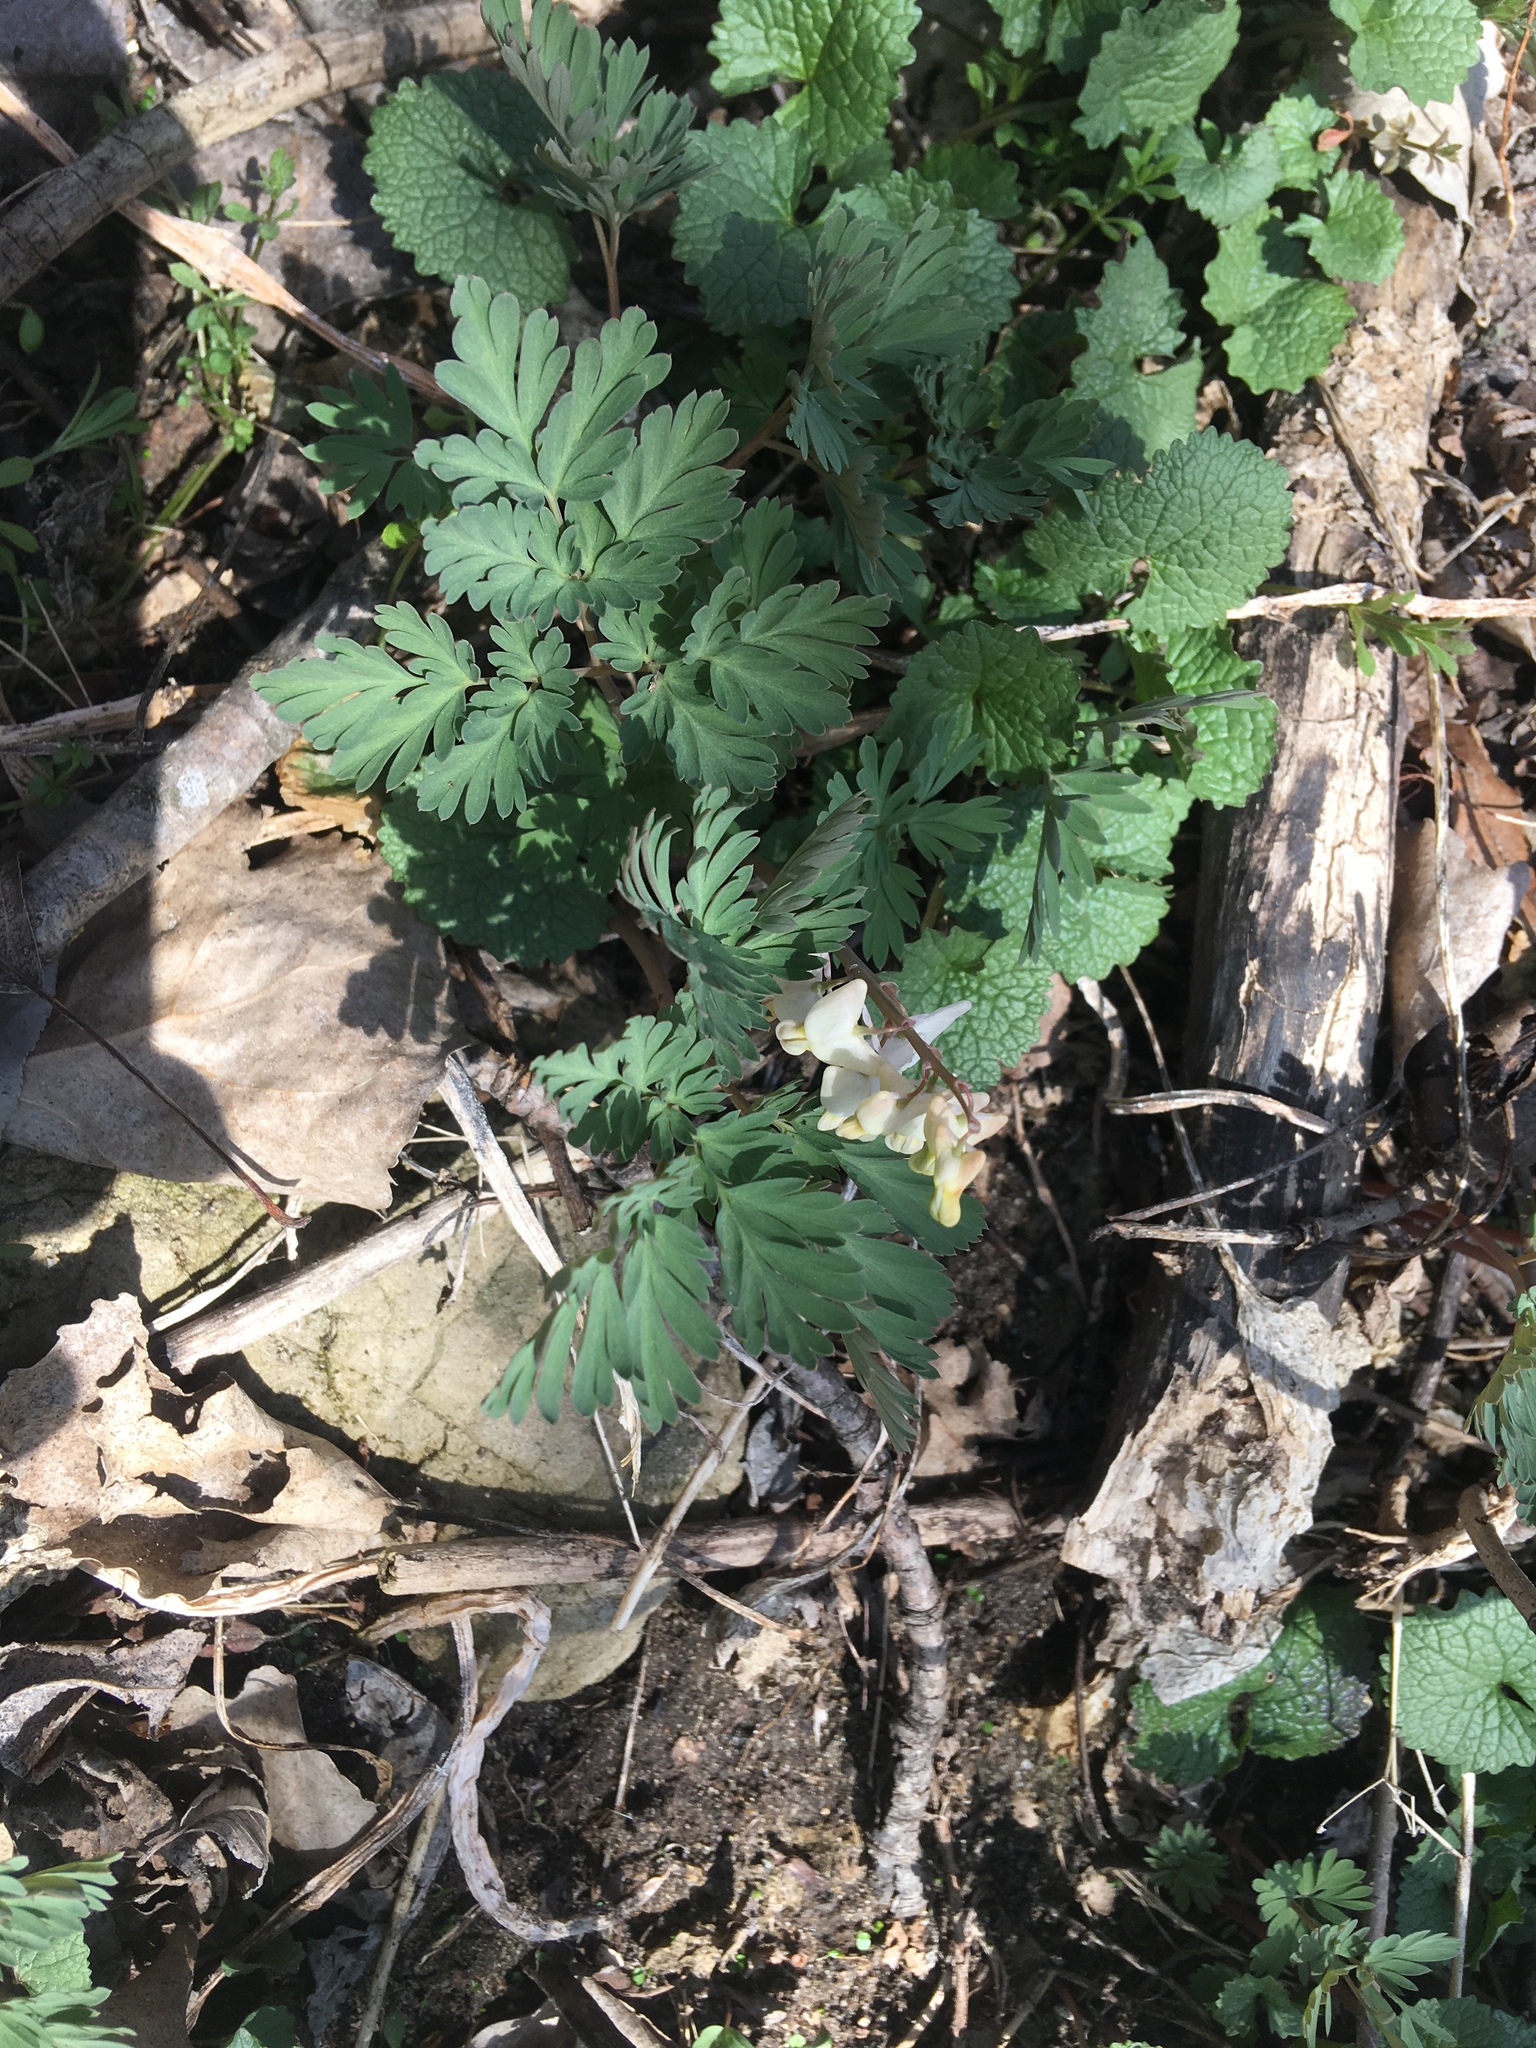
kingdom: Plantae
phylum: Tracheophyta
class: Magnoliopsida
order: Ranunculales
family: Papaveraceae
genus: Dicentra
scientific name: Dicentra cucullaria
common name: Dutchman's breeches
